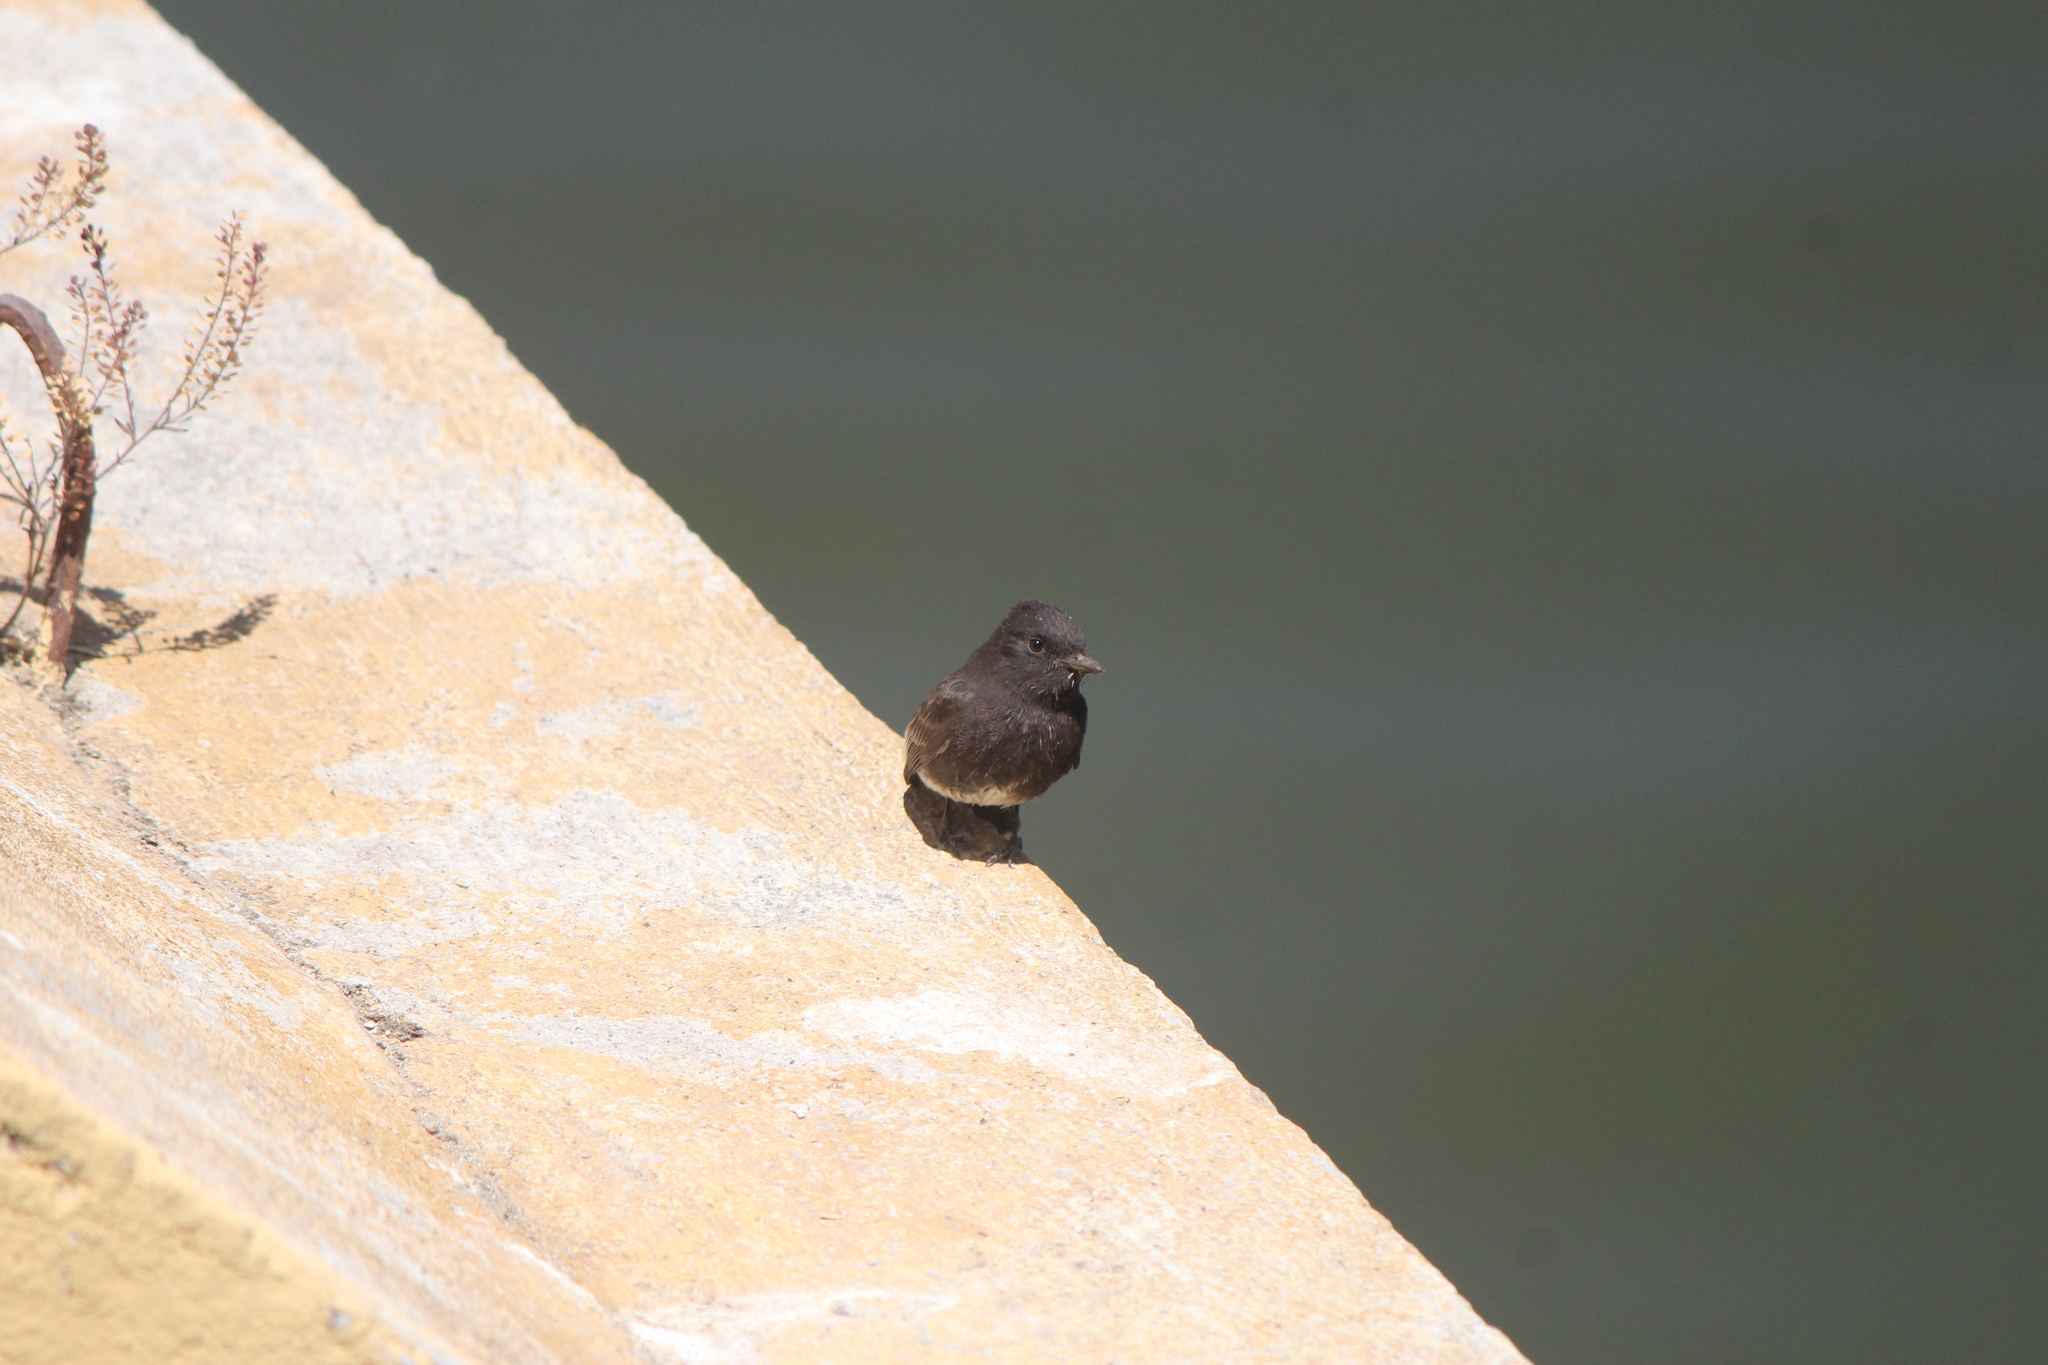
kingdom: Animalia
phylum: Chordata
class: Aves
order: Passeriformes
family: Tyrannidae
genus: Sayornis
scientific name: Sayornis nigricans
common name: Black phoebe
